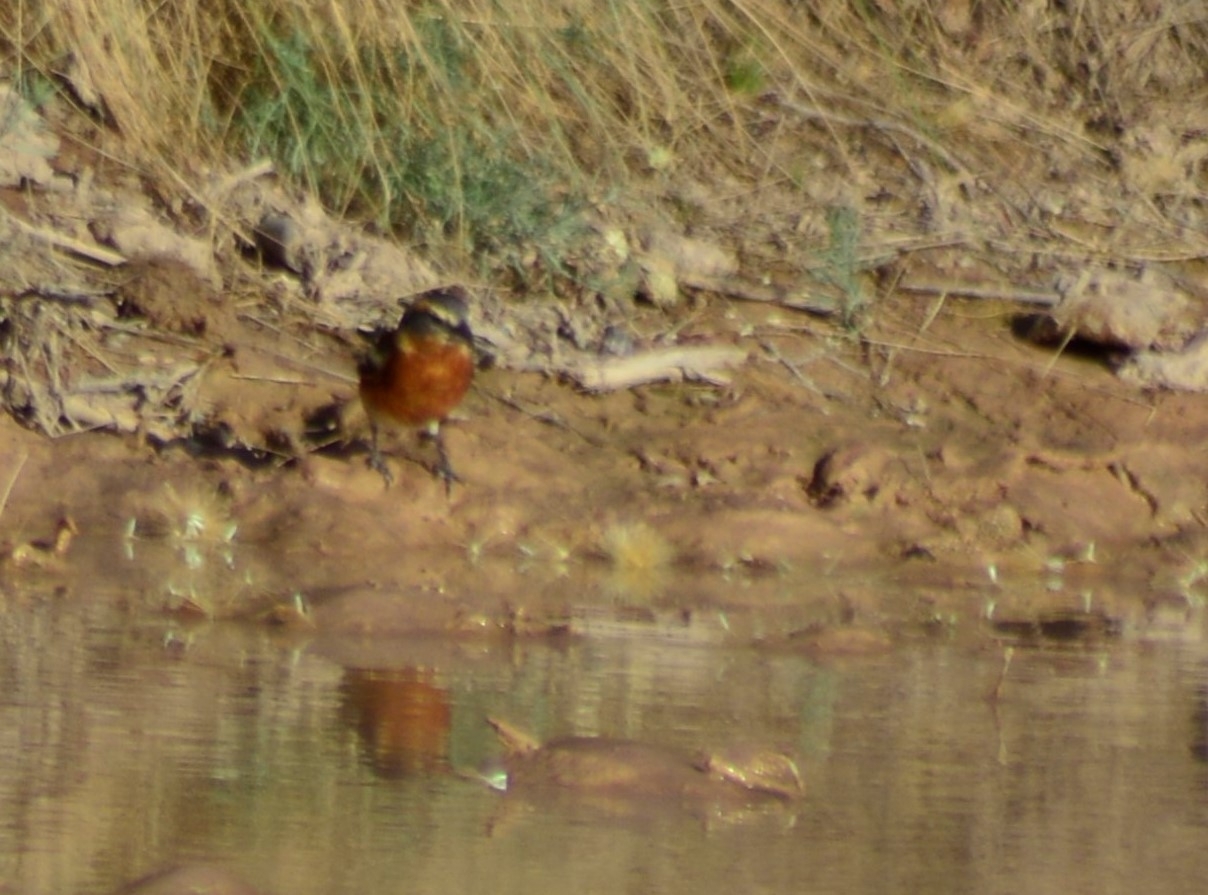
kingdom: Animalia
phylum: Chordata
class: Aves
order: Passeriformes
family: Thraupidae
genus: Poospiza
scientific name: Poospiza ornata
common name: Cinnamon warbling finch
